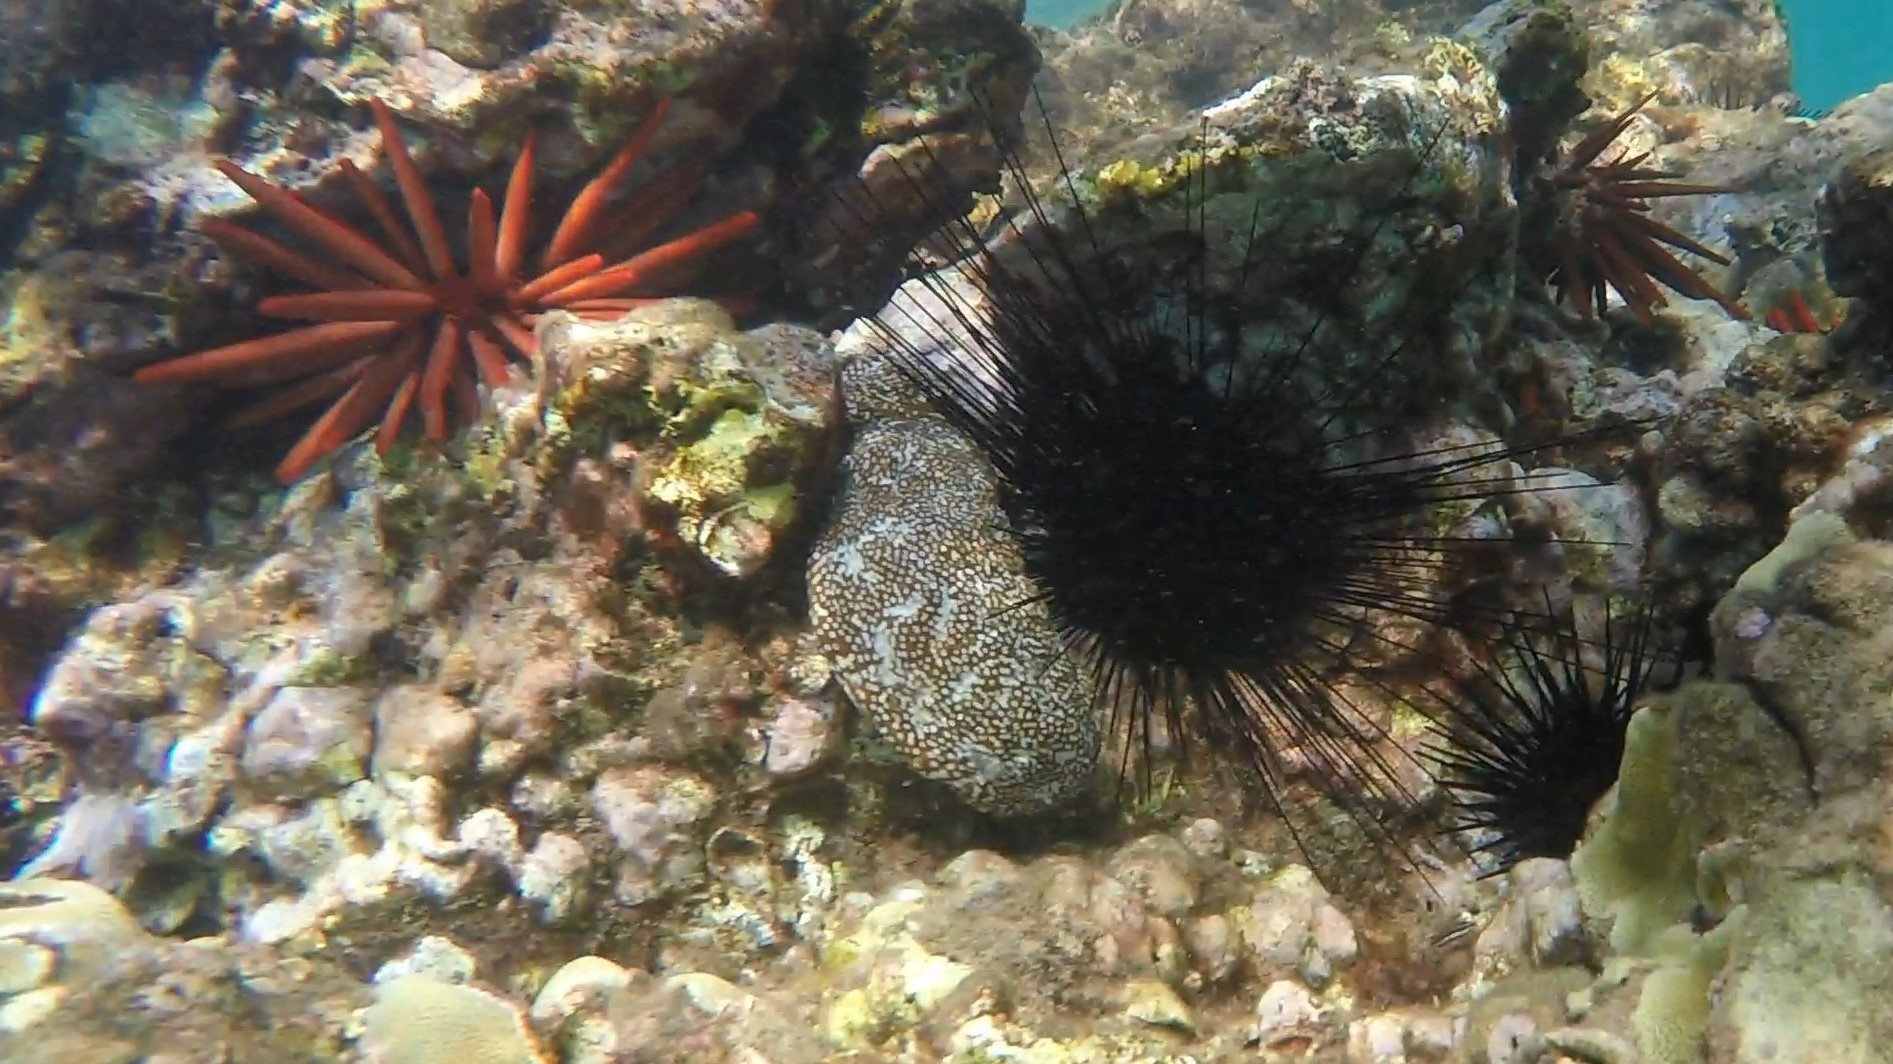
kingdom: Animalia
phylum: Echinodermata
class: Holothuroidea
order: Holothuriida
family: Holothuriidae
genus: Actinopyga
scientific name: Actinopyga varians
